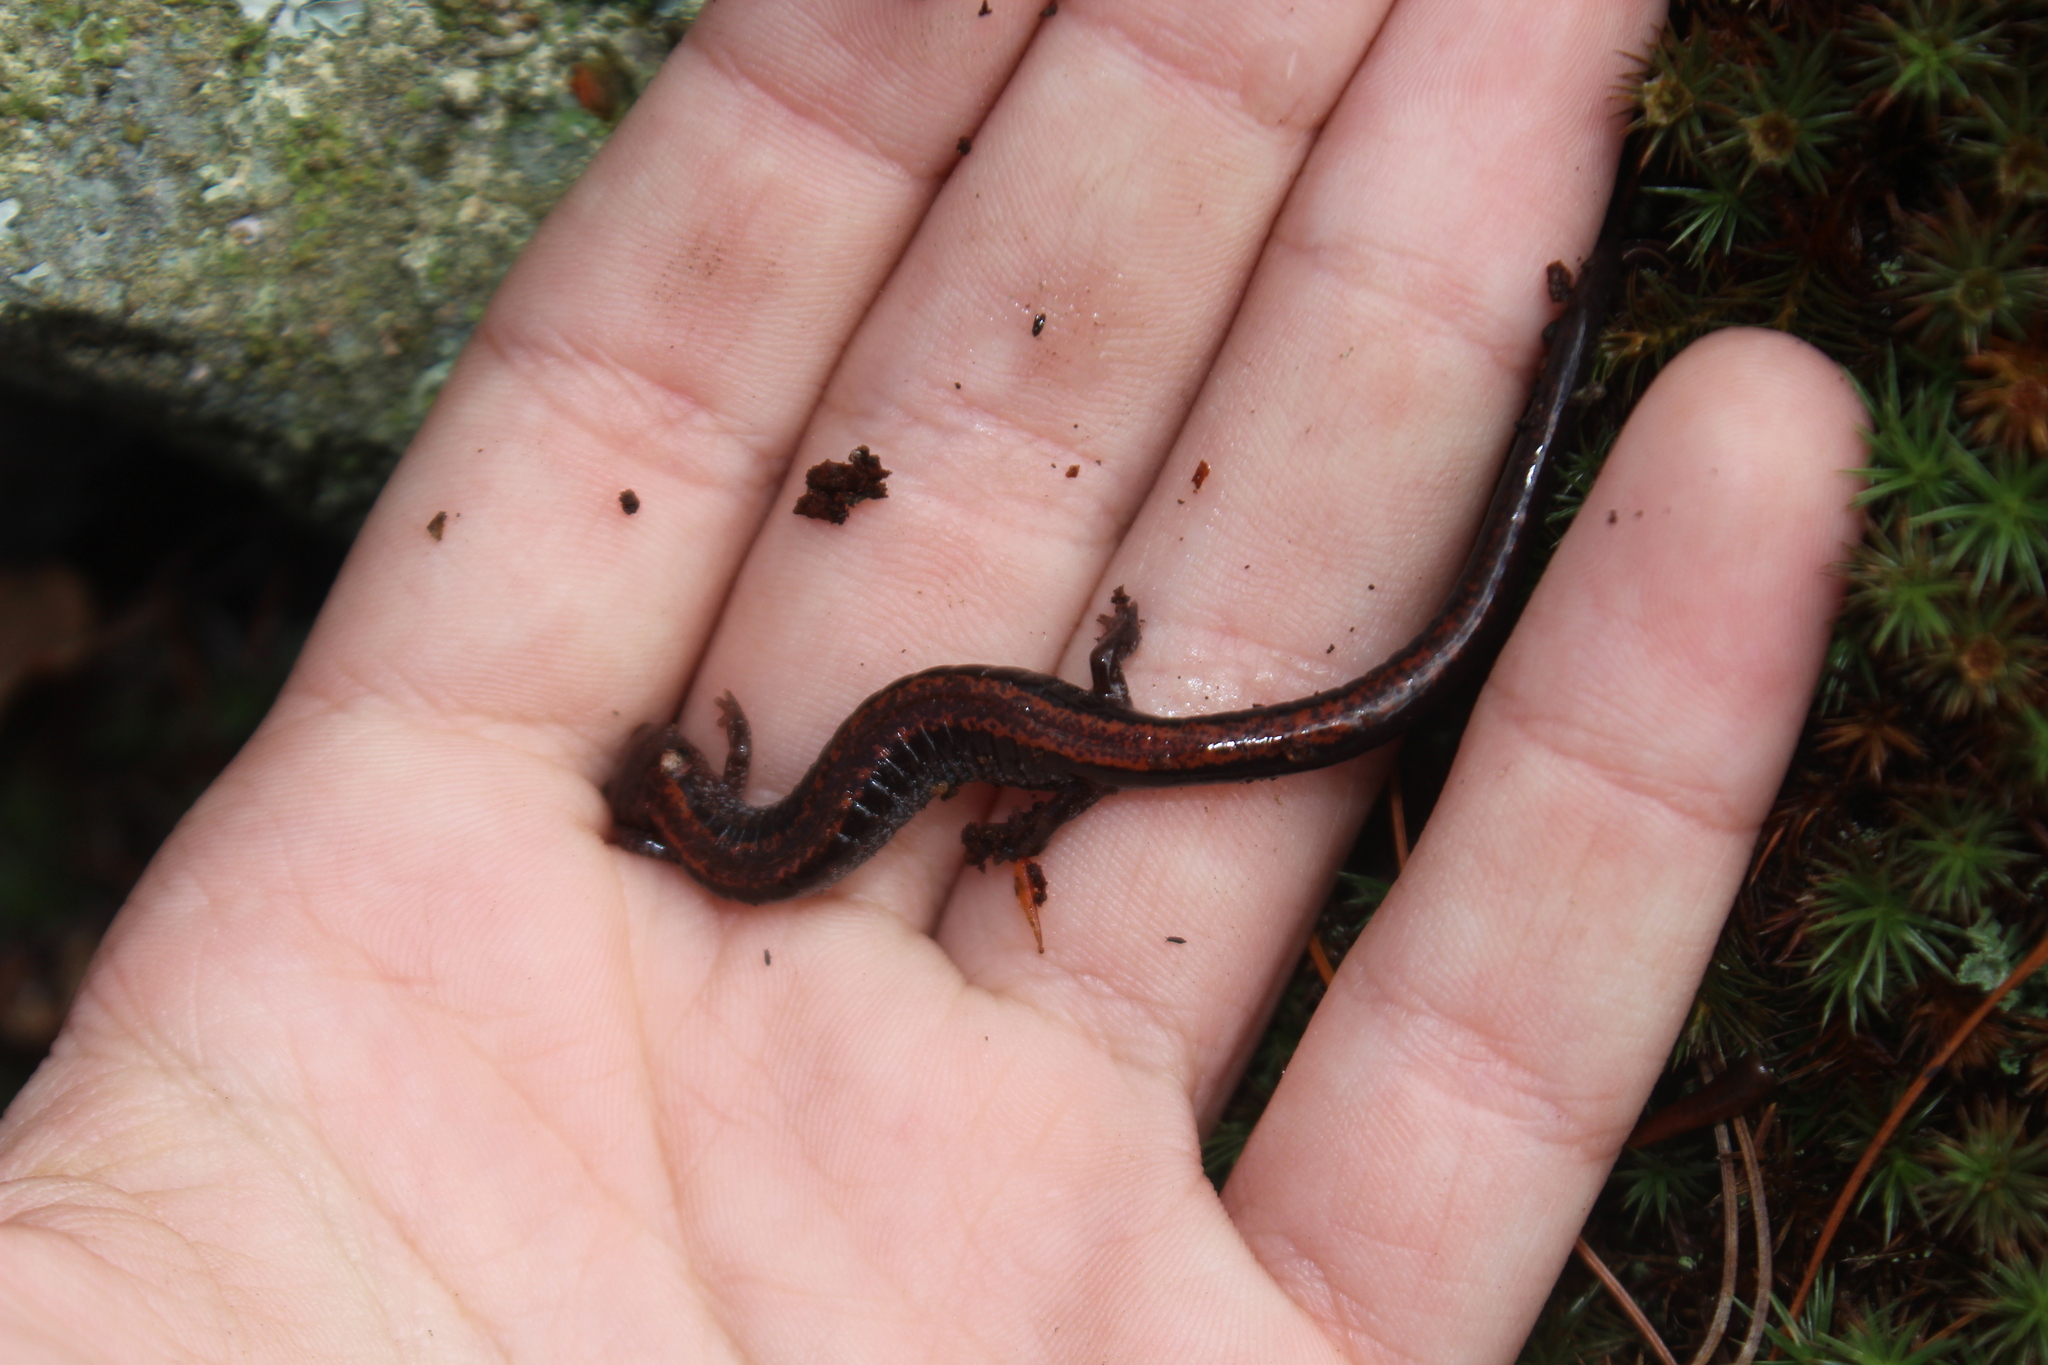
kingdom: Animalia
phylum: Chordata
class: Amphibia
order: Caudata
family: Plethodontidae
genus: Plethodon
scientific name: Plethodon cinereus
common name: Redback salamander
